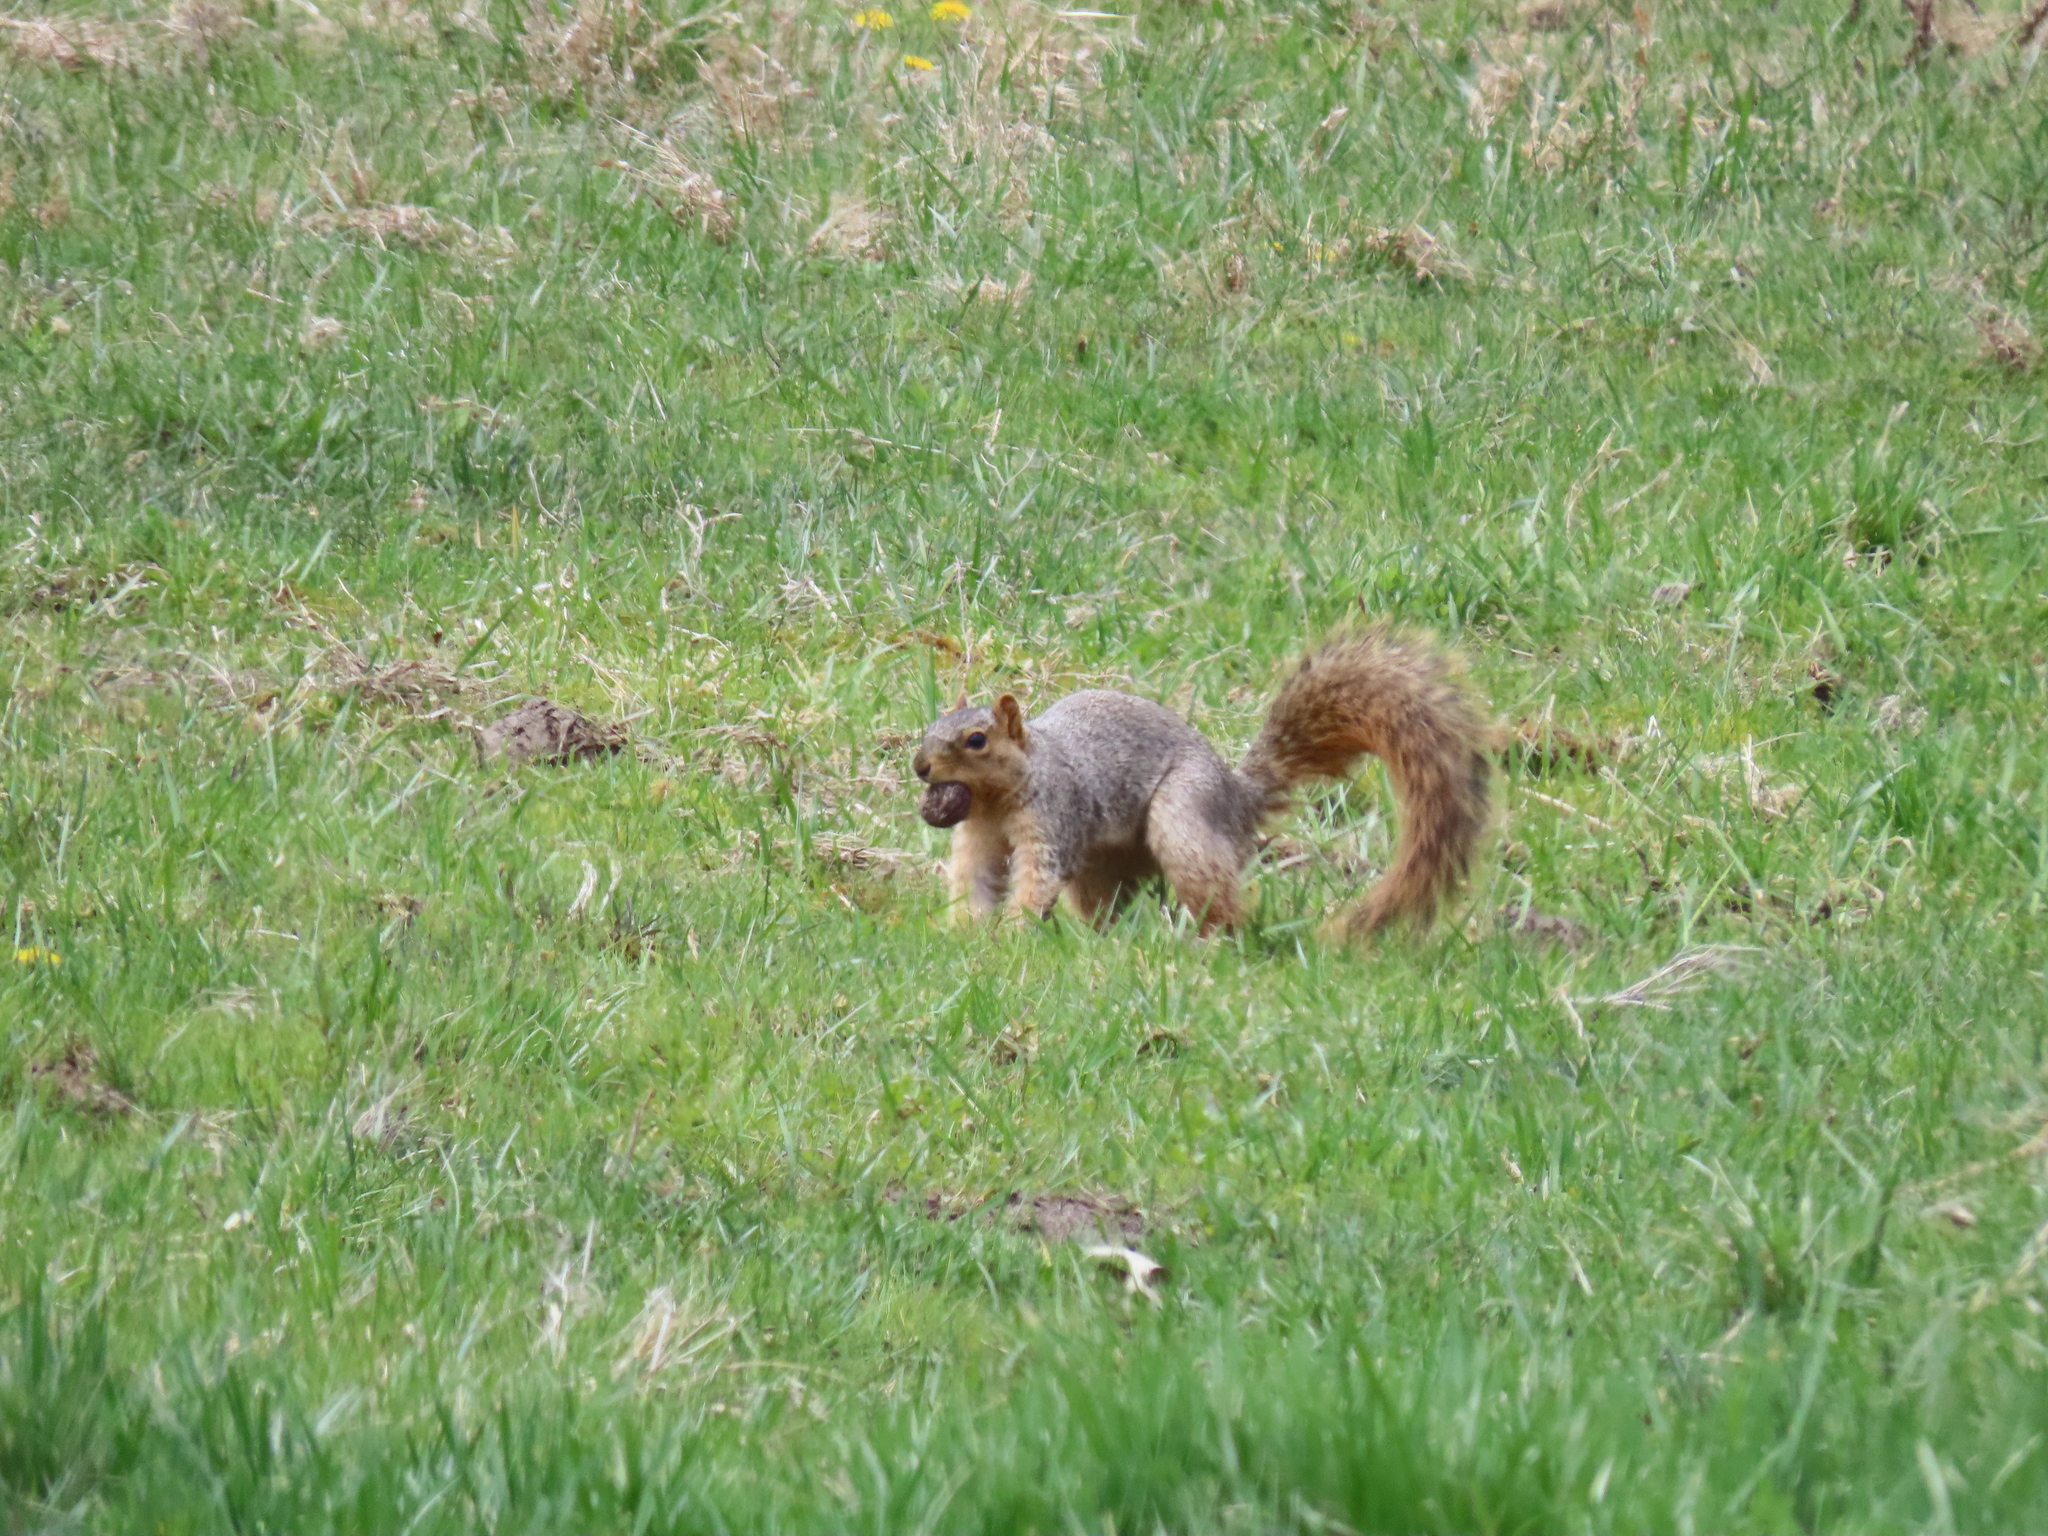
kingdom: Animalia
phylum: Chordata
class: Mammalia
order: Rodentia
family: Sciuridae
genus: Sciurus
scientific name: Sciurus niger
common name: Fox squirrel
